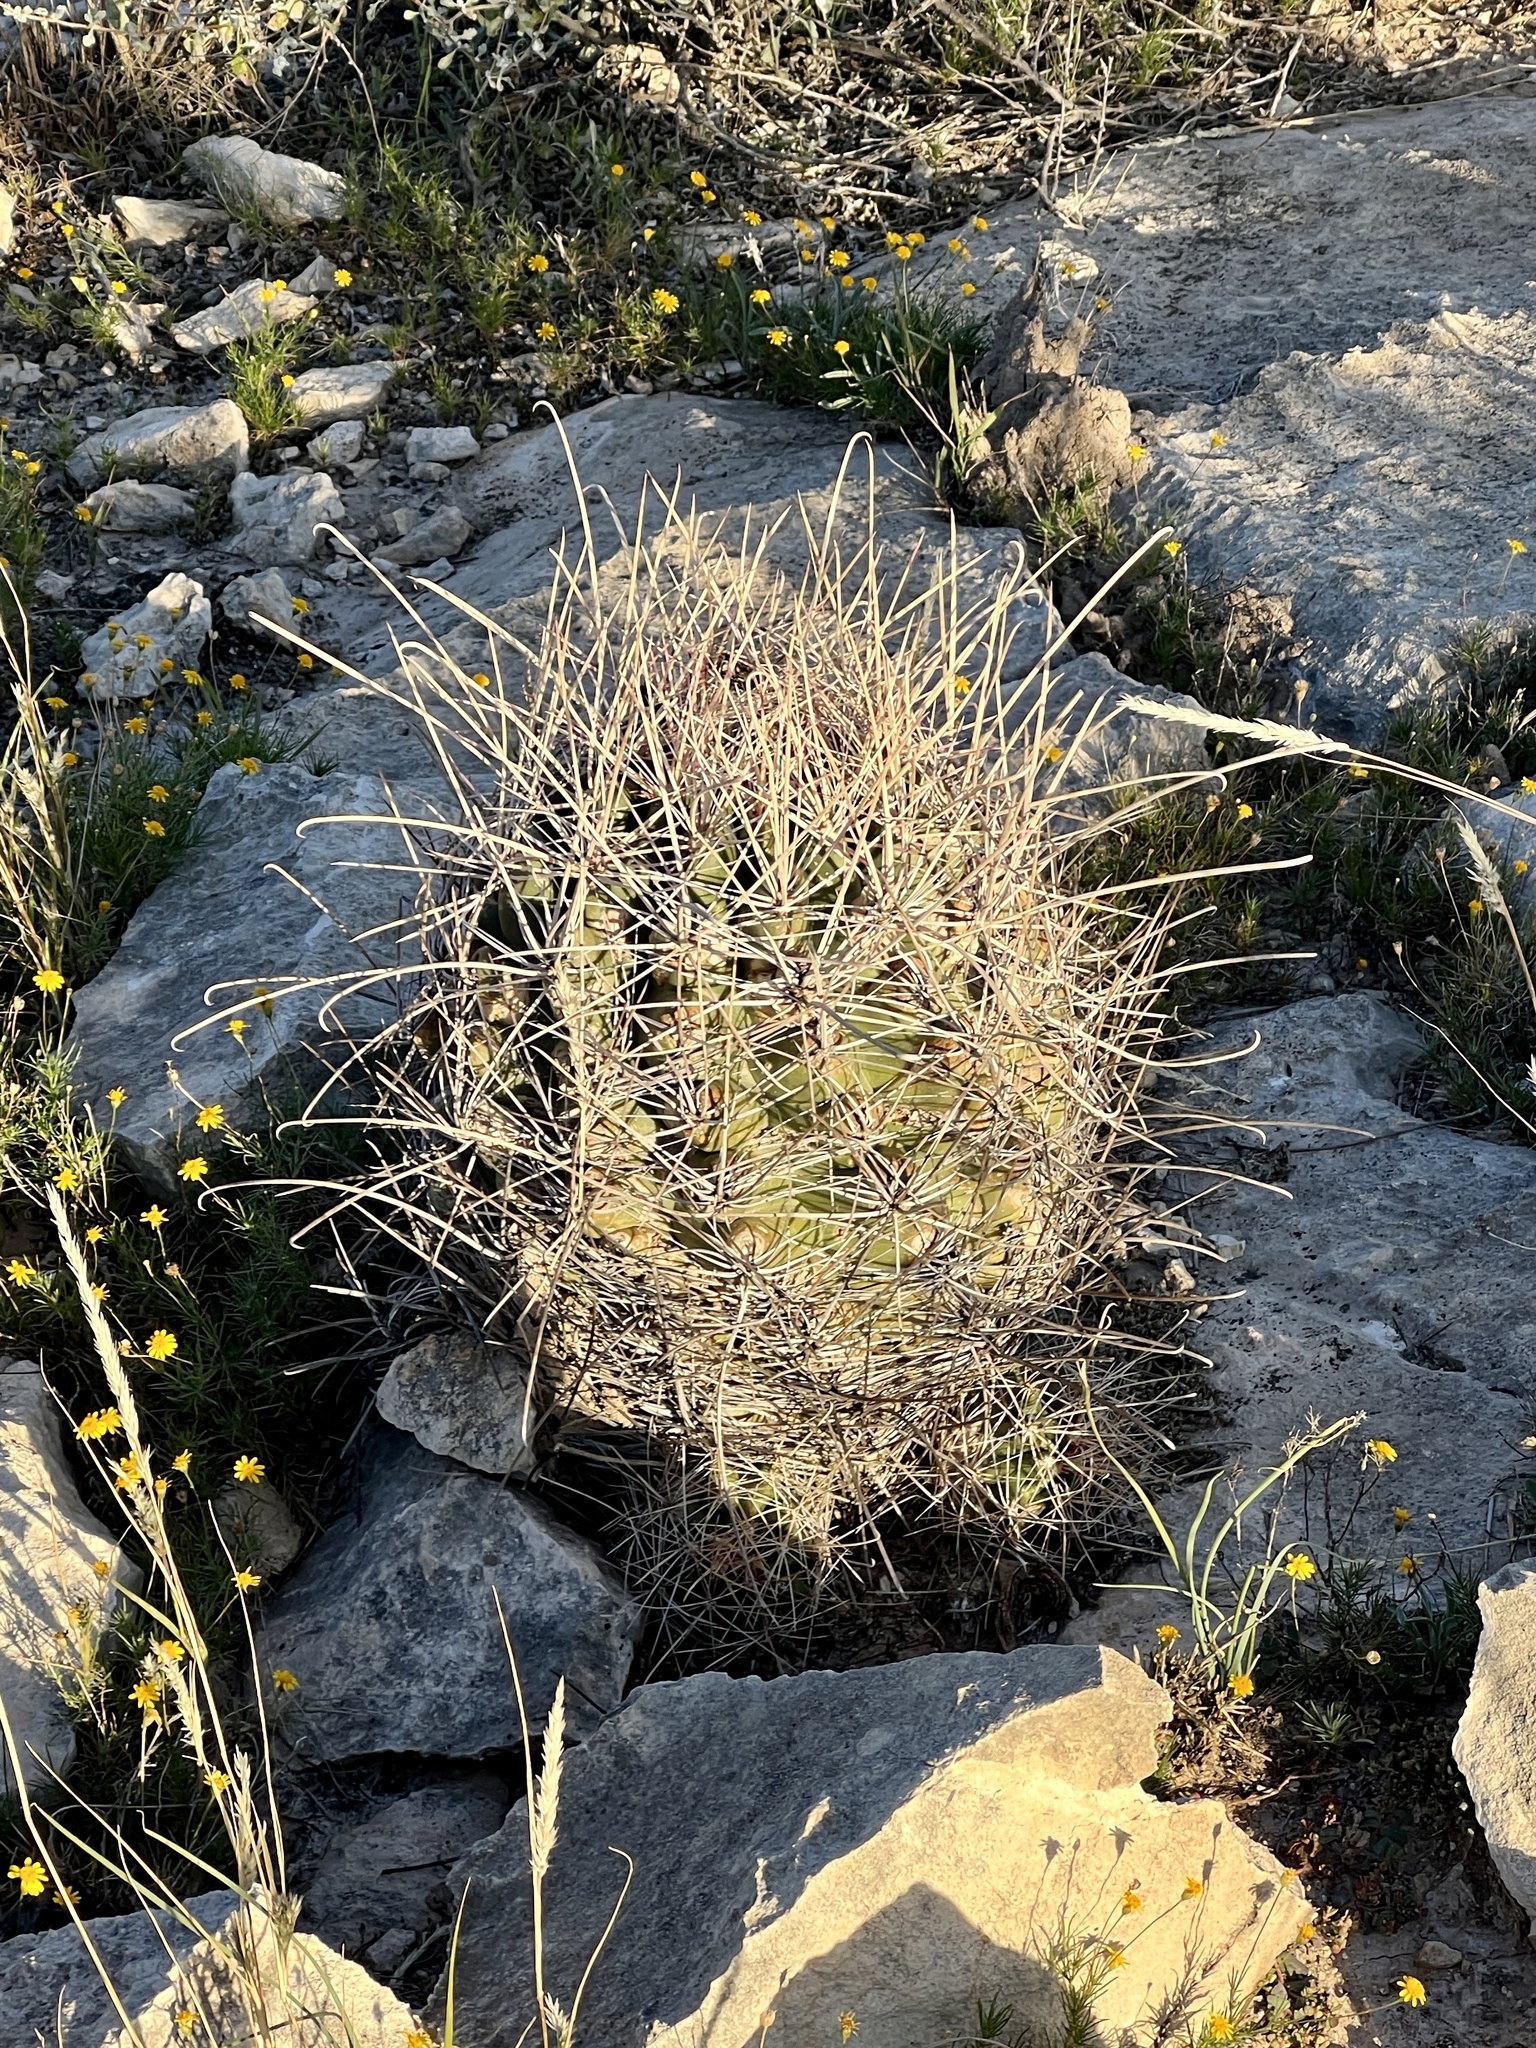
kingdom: Plantae
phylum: Tracheophyta
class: Magnoliopsida
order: Caryophyllales
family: Cactaceae
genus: Bisnaga
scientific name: Bisnaga hamatacantha
